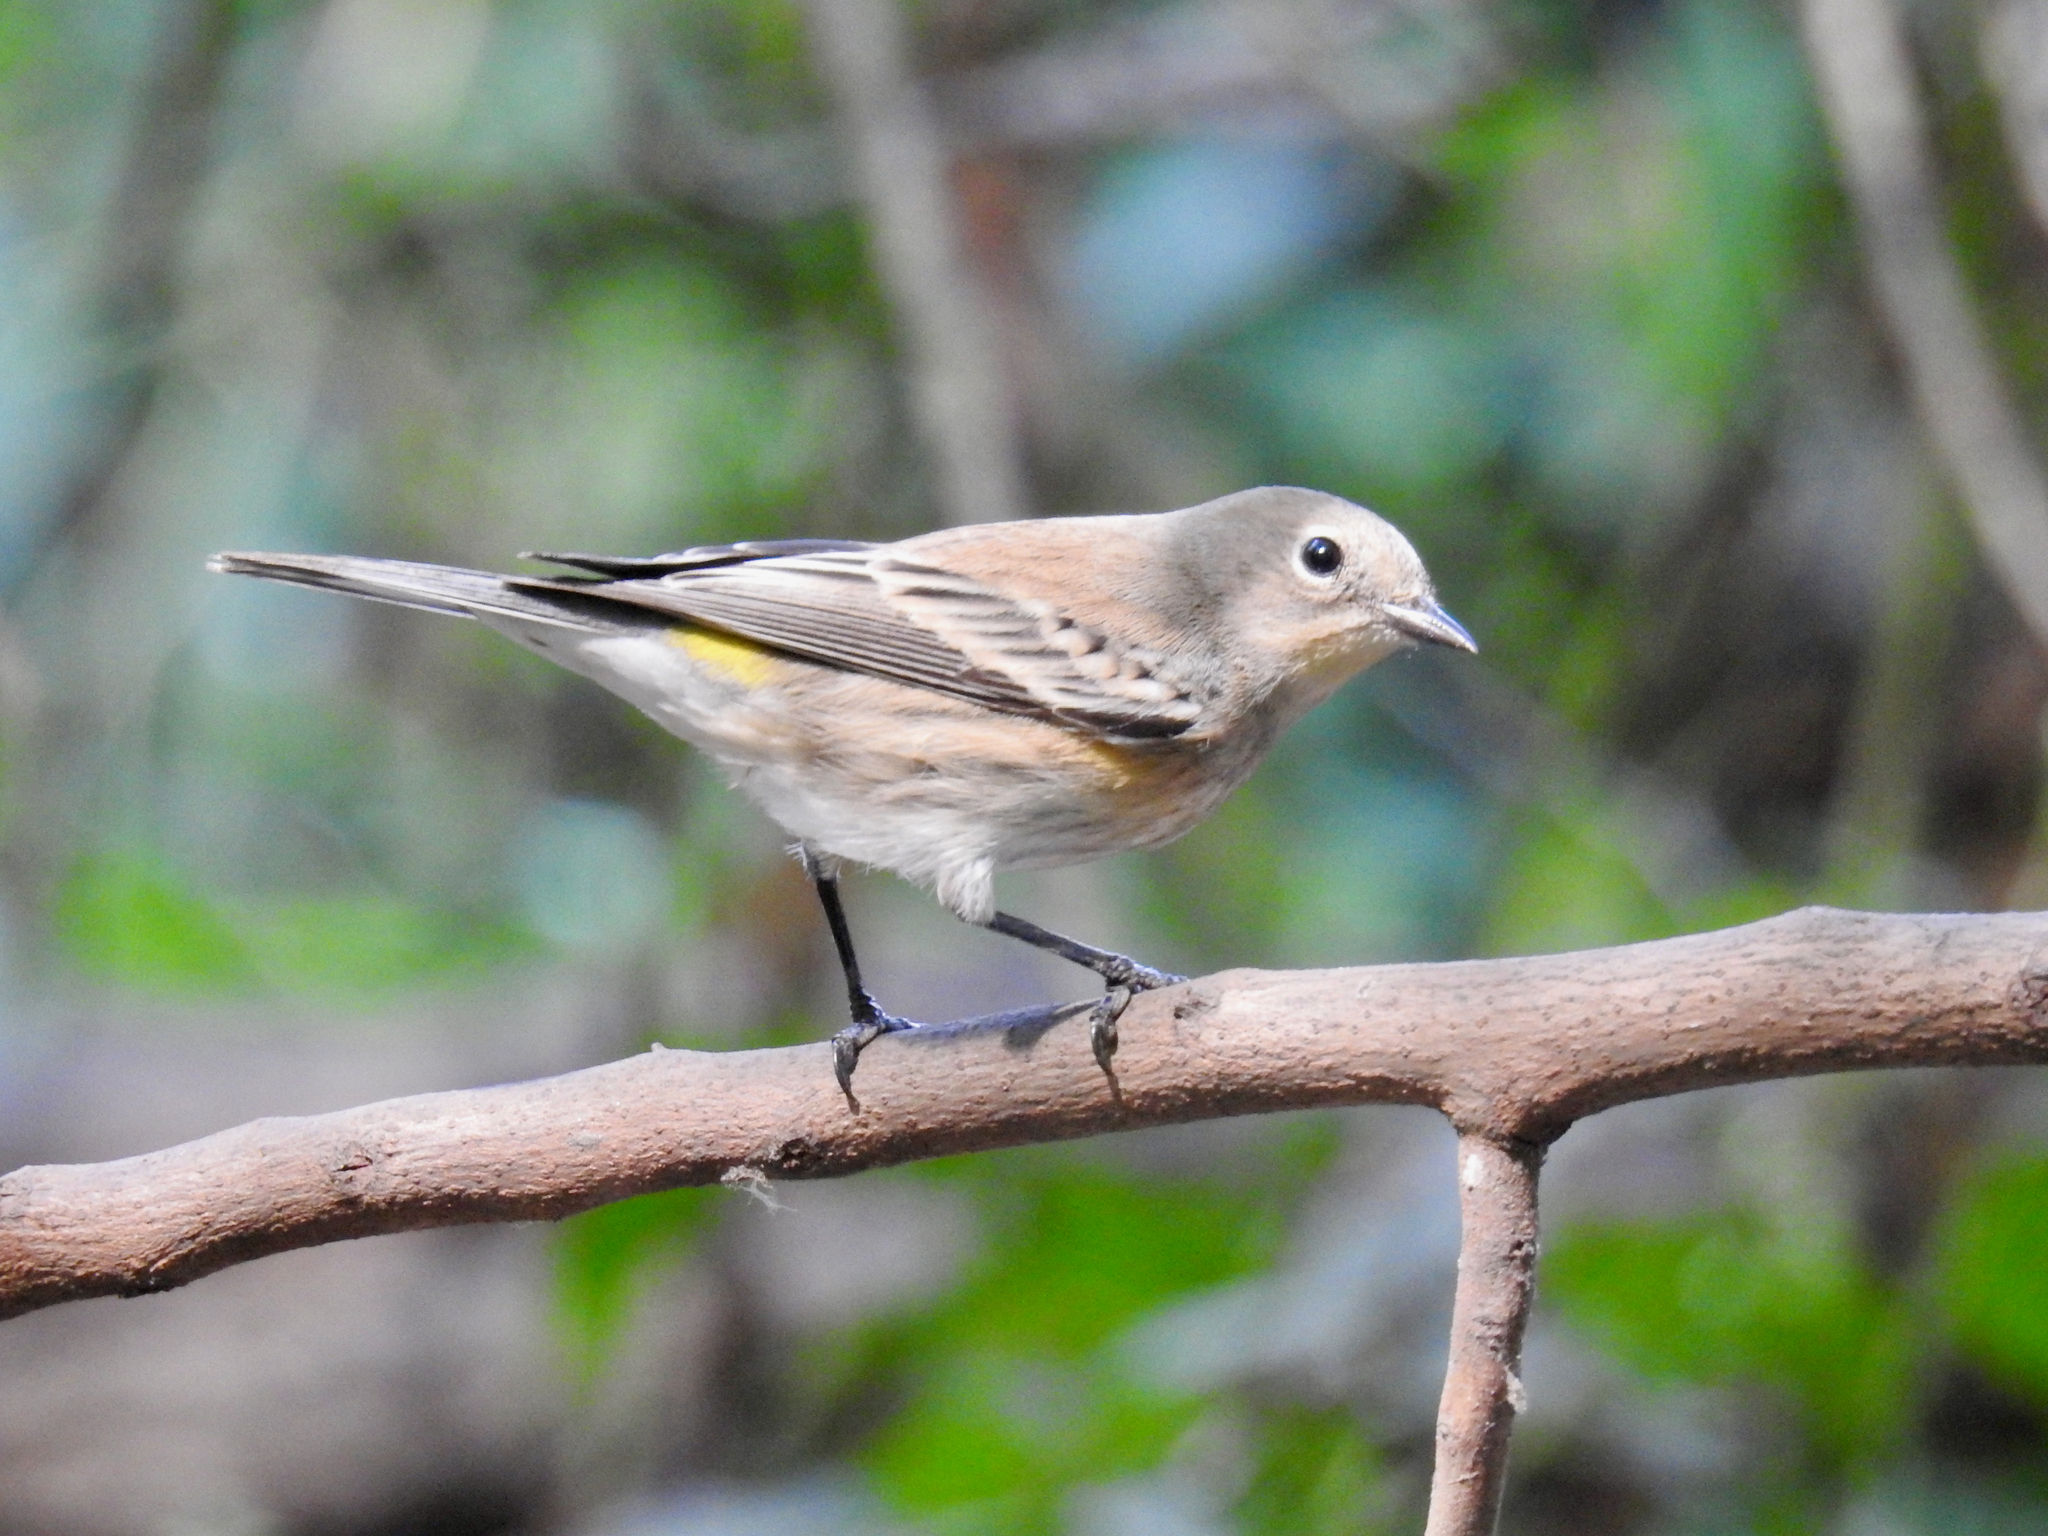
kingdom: Animalia
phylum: Chordata
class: Aves
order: Passeriformes
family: Parulidae
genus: Setophaga
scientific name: Setophaga coronata
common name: Myrtle warbler
